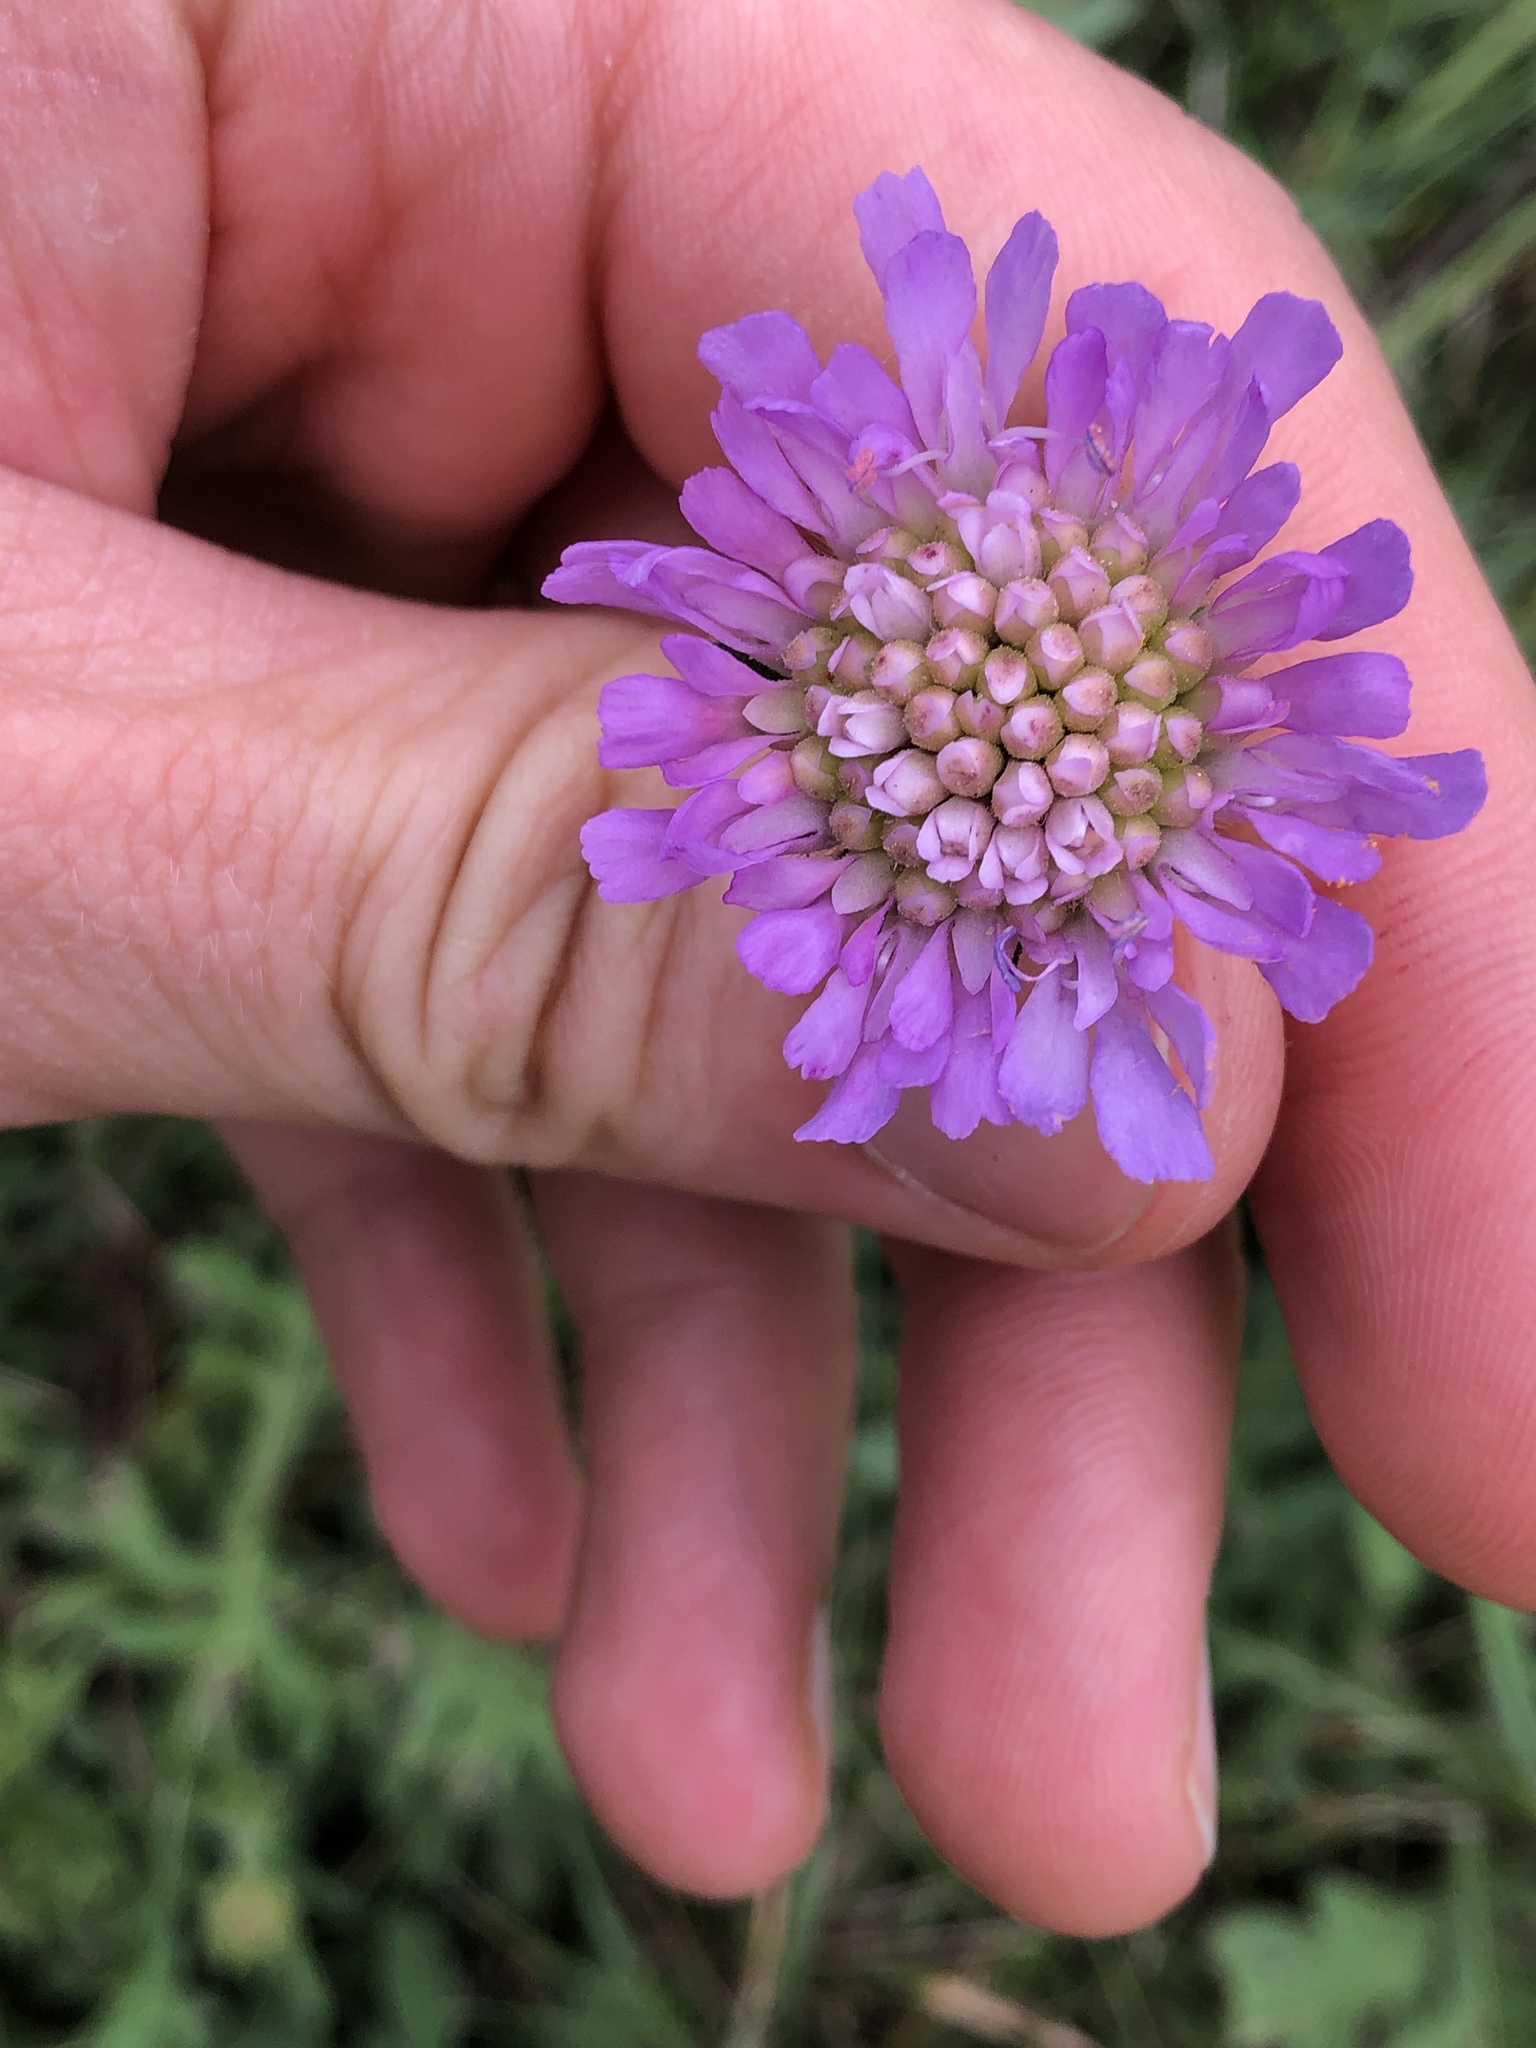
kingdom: Plantae
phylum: Tracheophyta
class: Magnoliopsida
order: Dipsacales
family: Caprifoliaceae
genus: Knautia
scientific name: Knautia arvensis
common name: Field scabiosa
